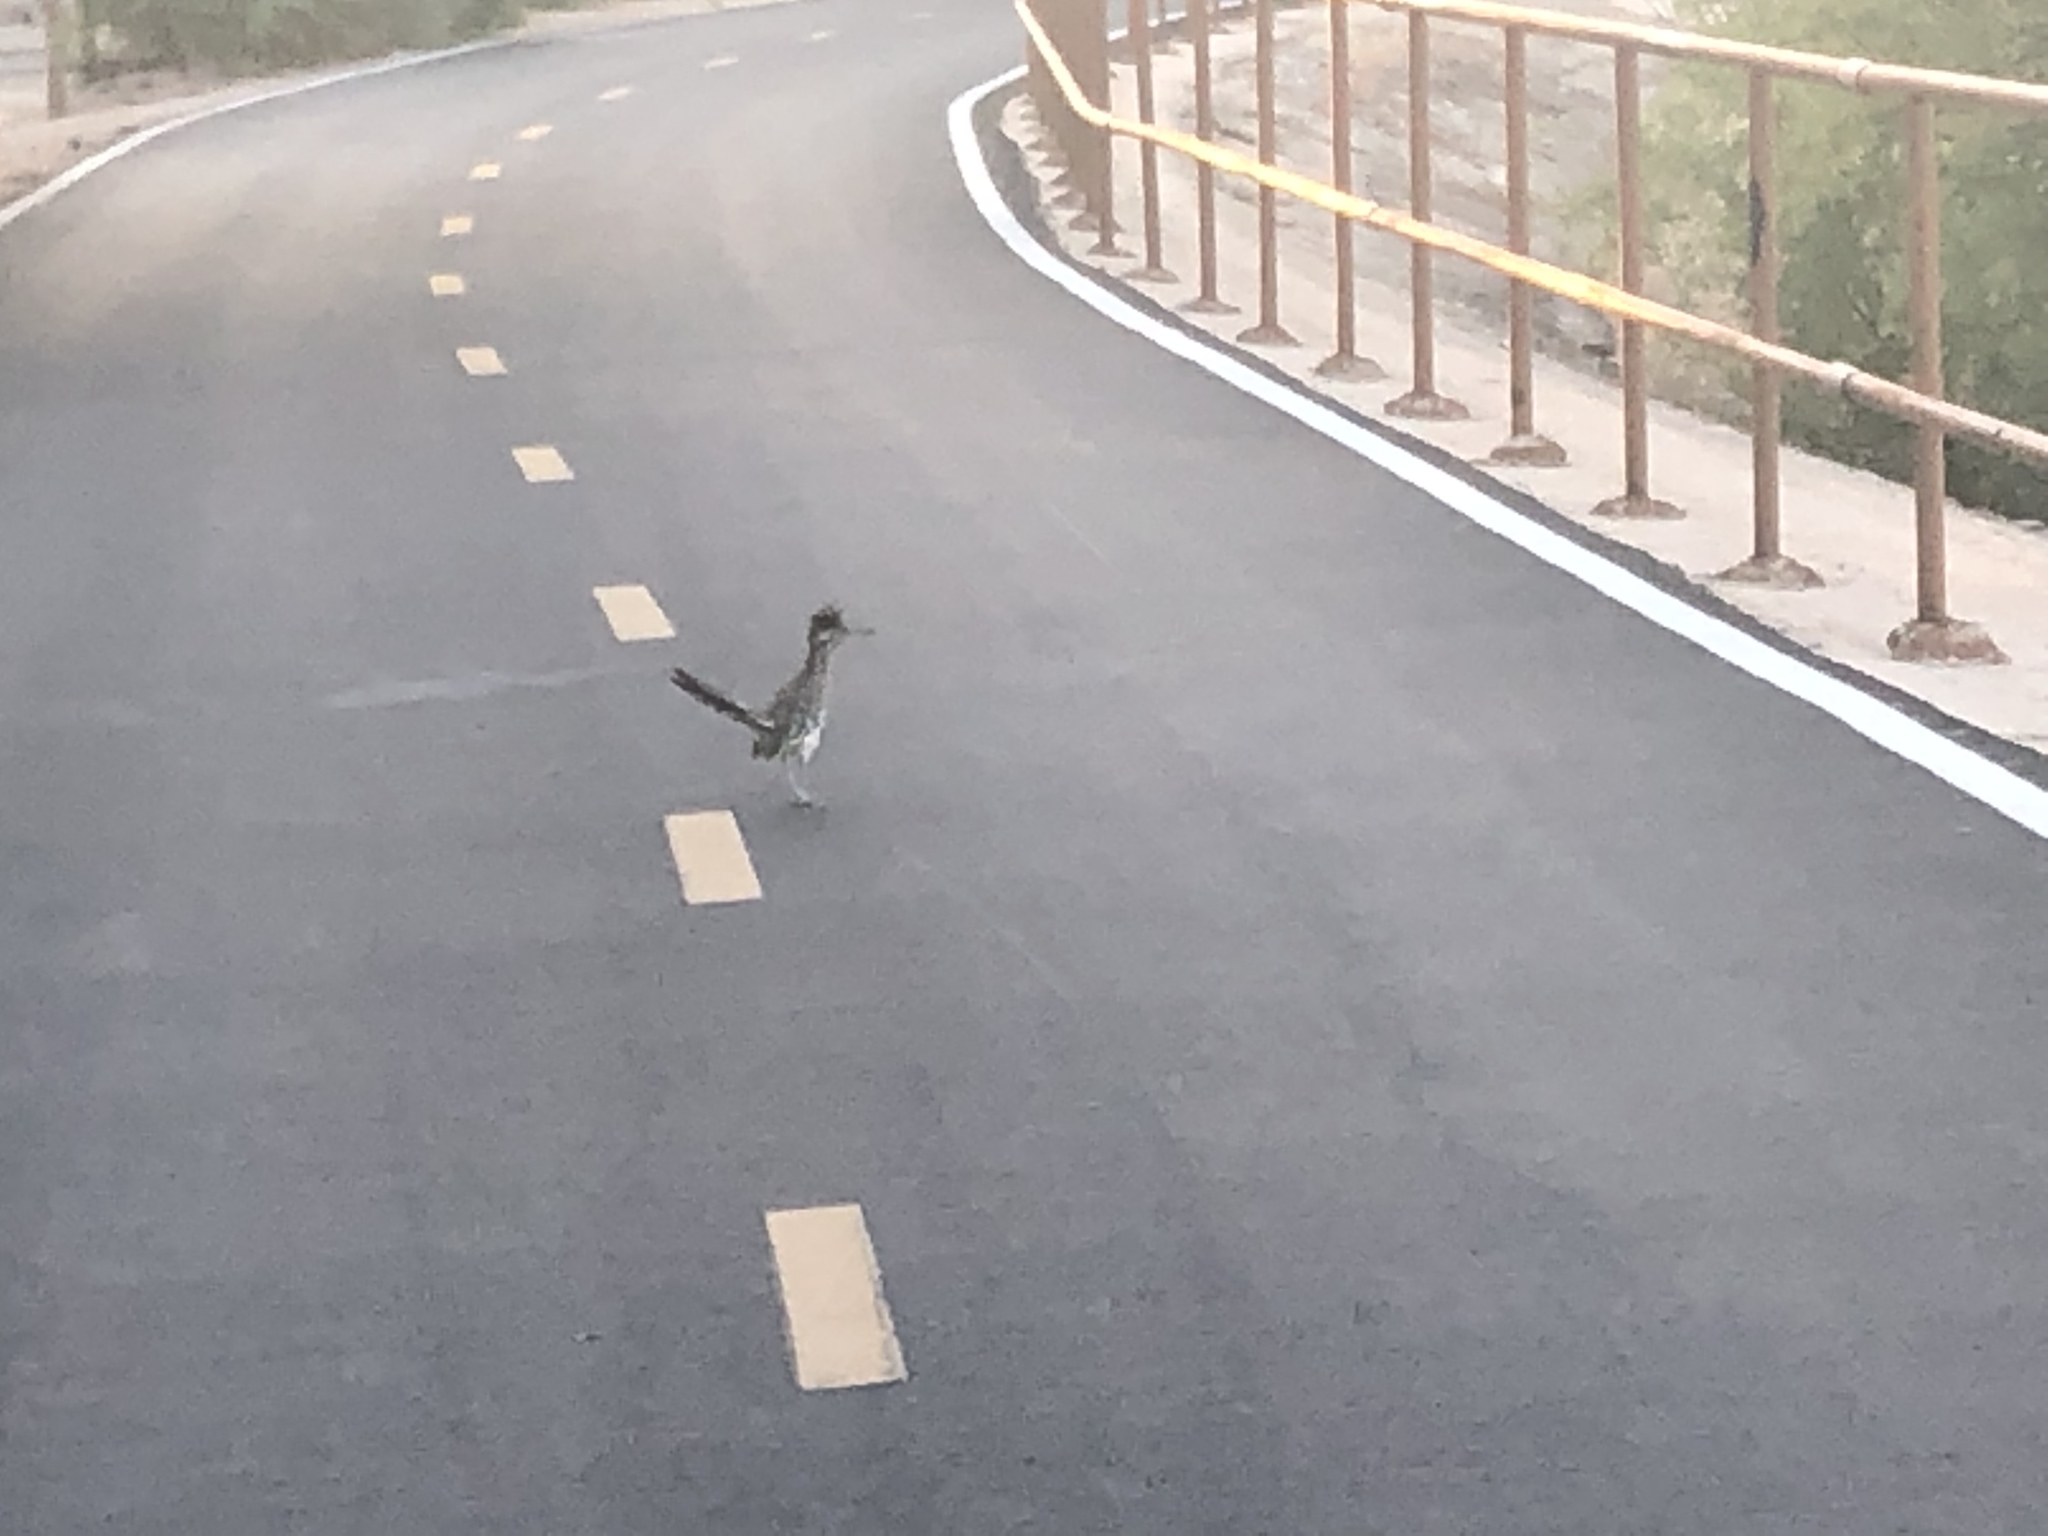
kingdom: Animalia
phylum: Chordata
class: Aves
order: Cuculiformes
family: Cuculidae
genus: Geococcyx
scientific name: Geococcyx californianus
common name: Greater roadrunner
